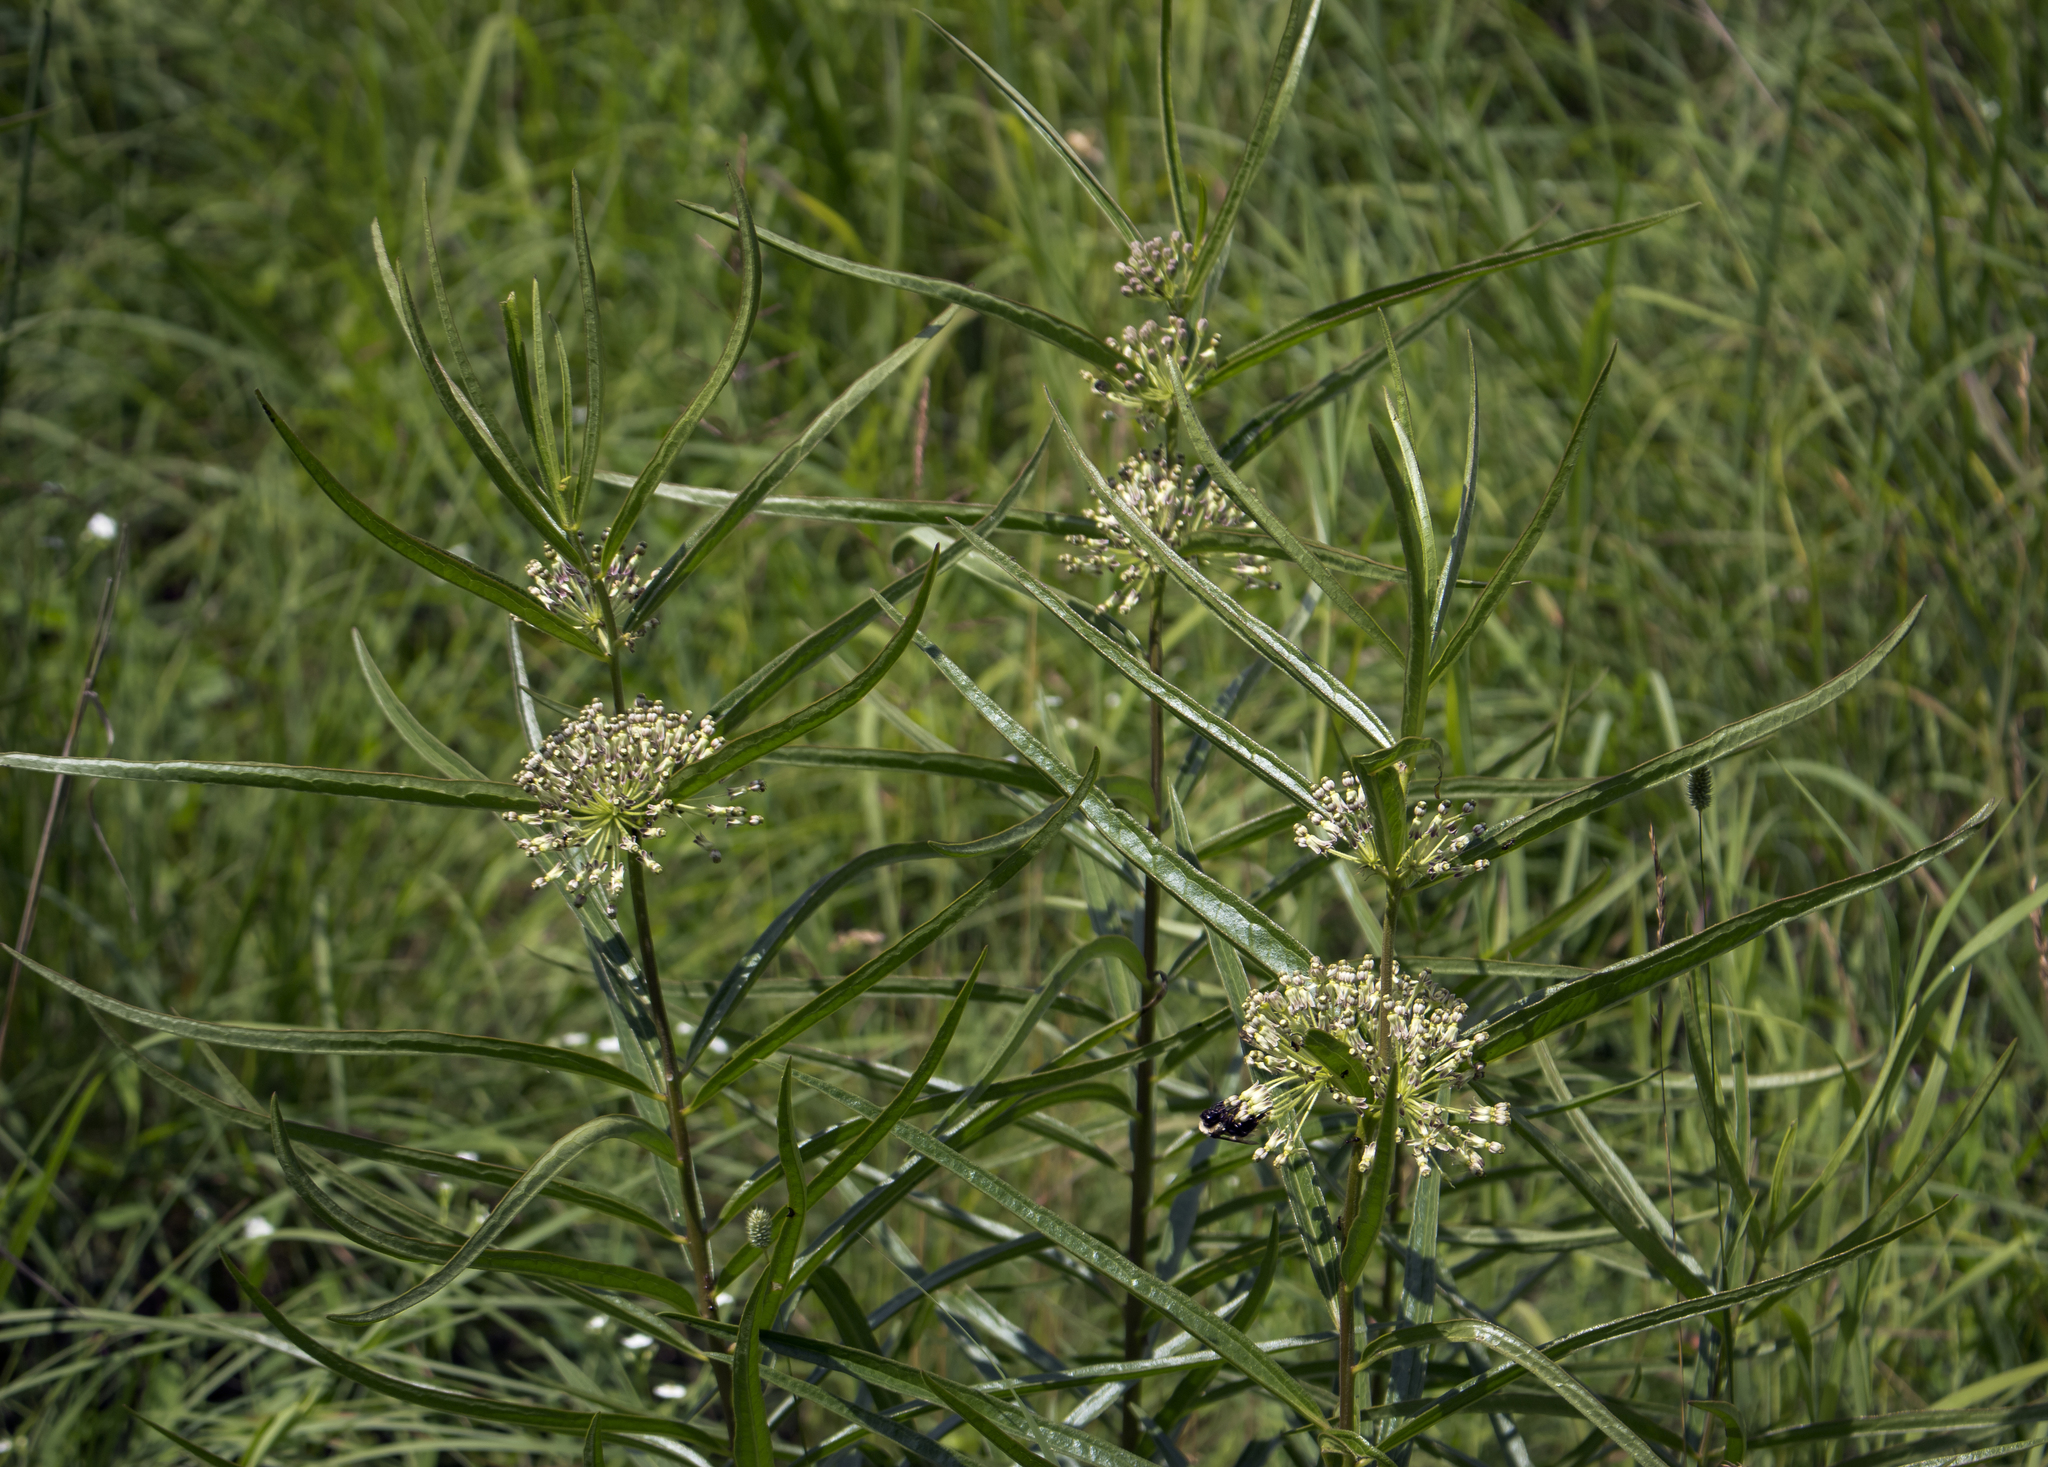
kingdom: Plantae
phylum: Tracheophyta
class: Magnoliopsida
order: Gentianales
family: Apocynaceae
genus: Asclepias
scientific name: Asclepias hirtella
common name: Prairie milkweed
